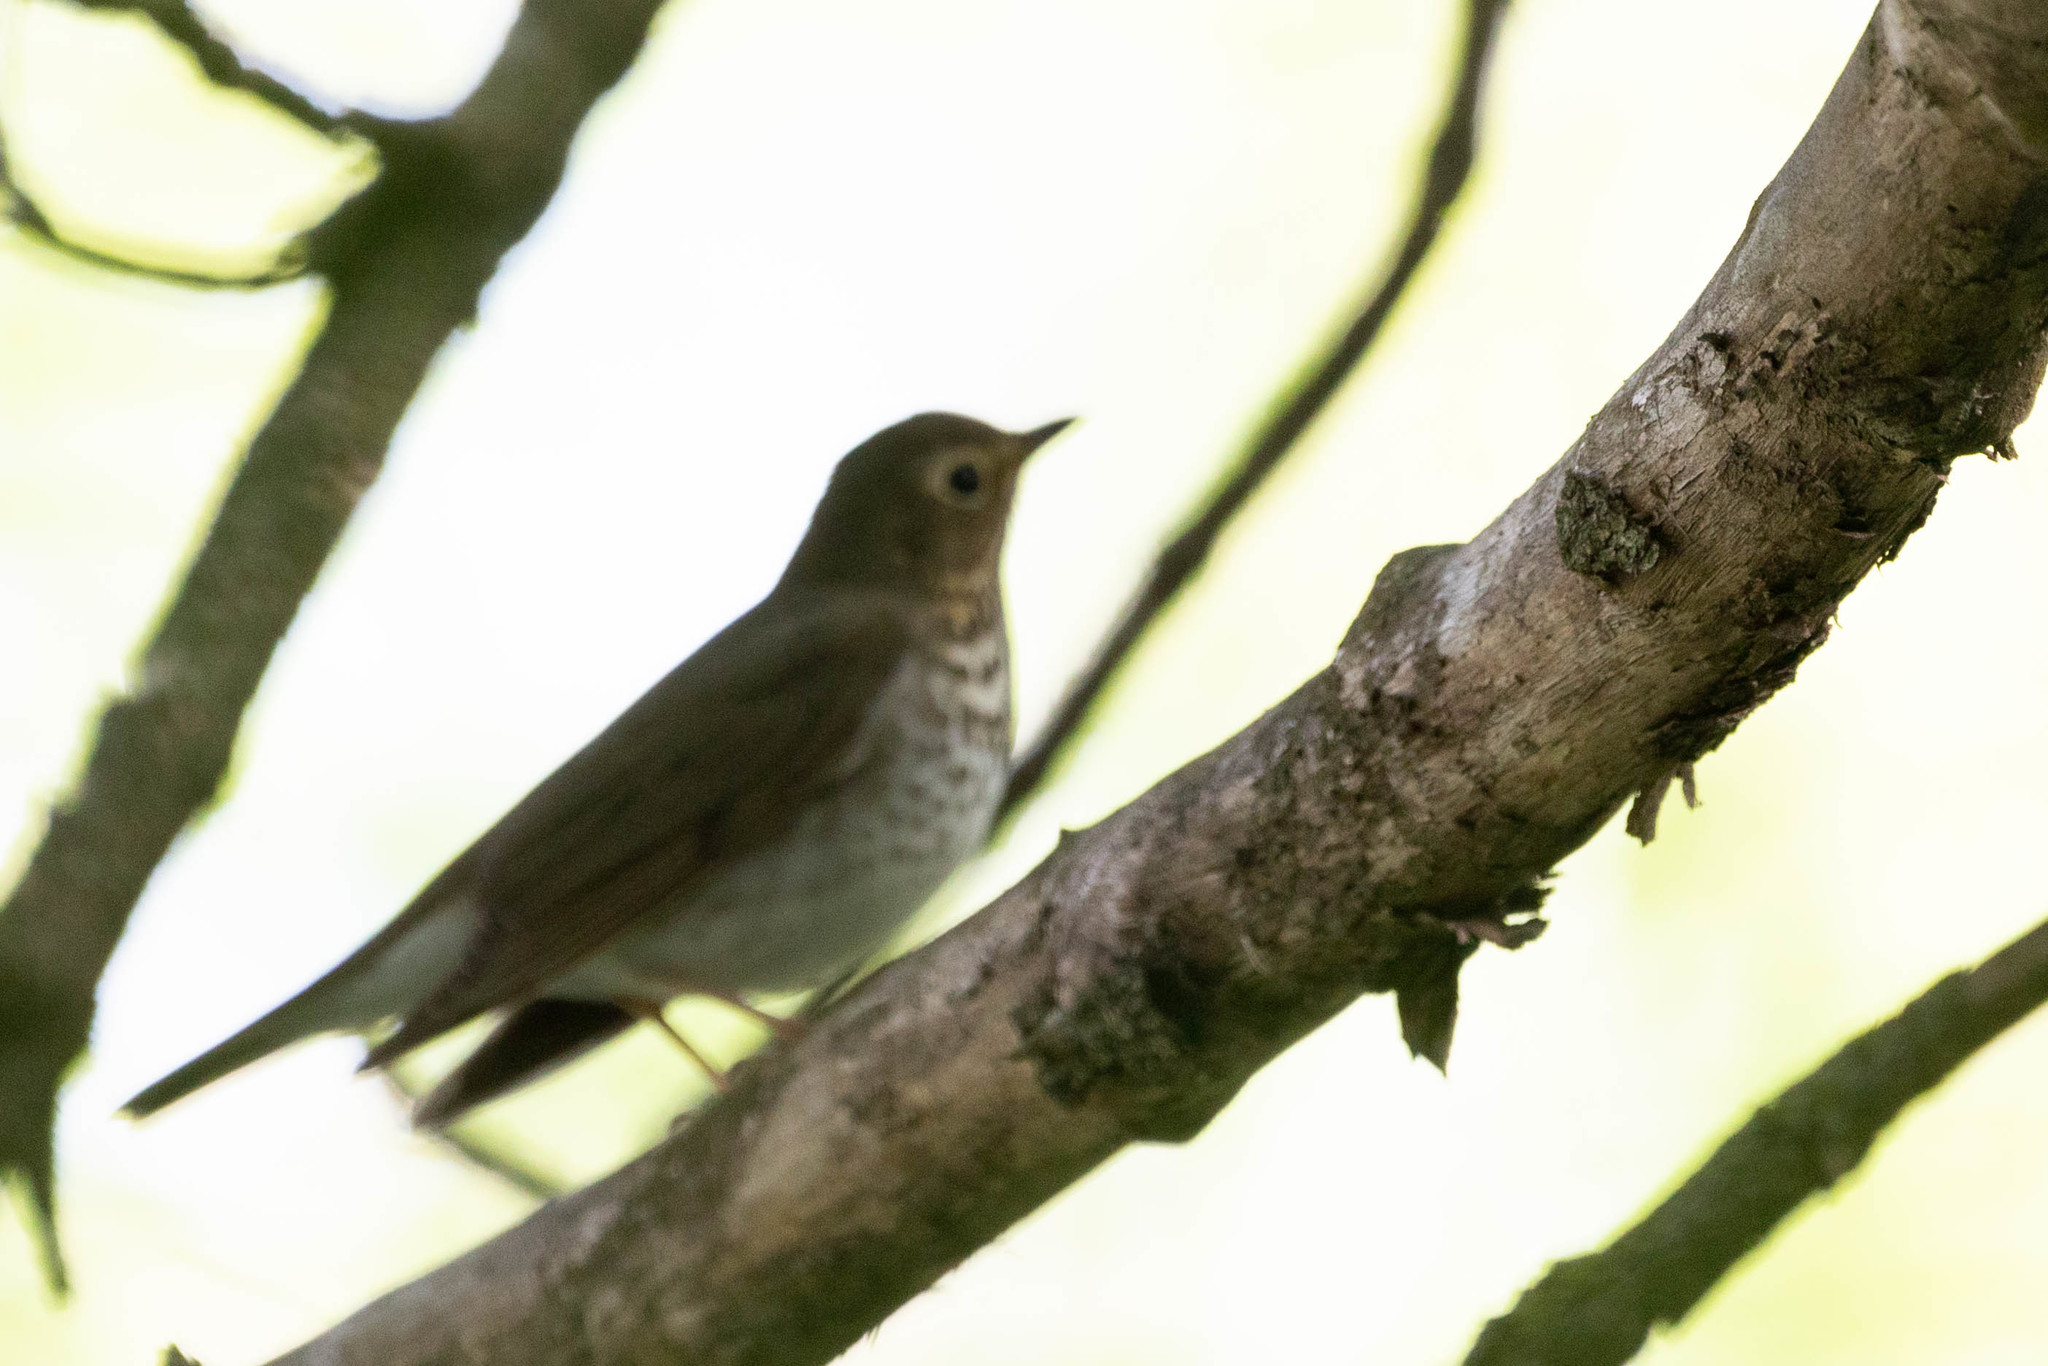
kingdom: Animalia
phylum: Chordata
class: Aves
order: Passeriformes
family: Turdidae
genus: Catharus
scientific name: Catharus ustulatus
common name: Swainson's thrush
